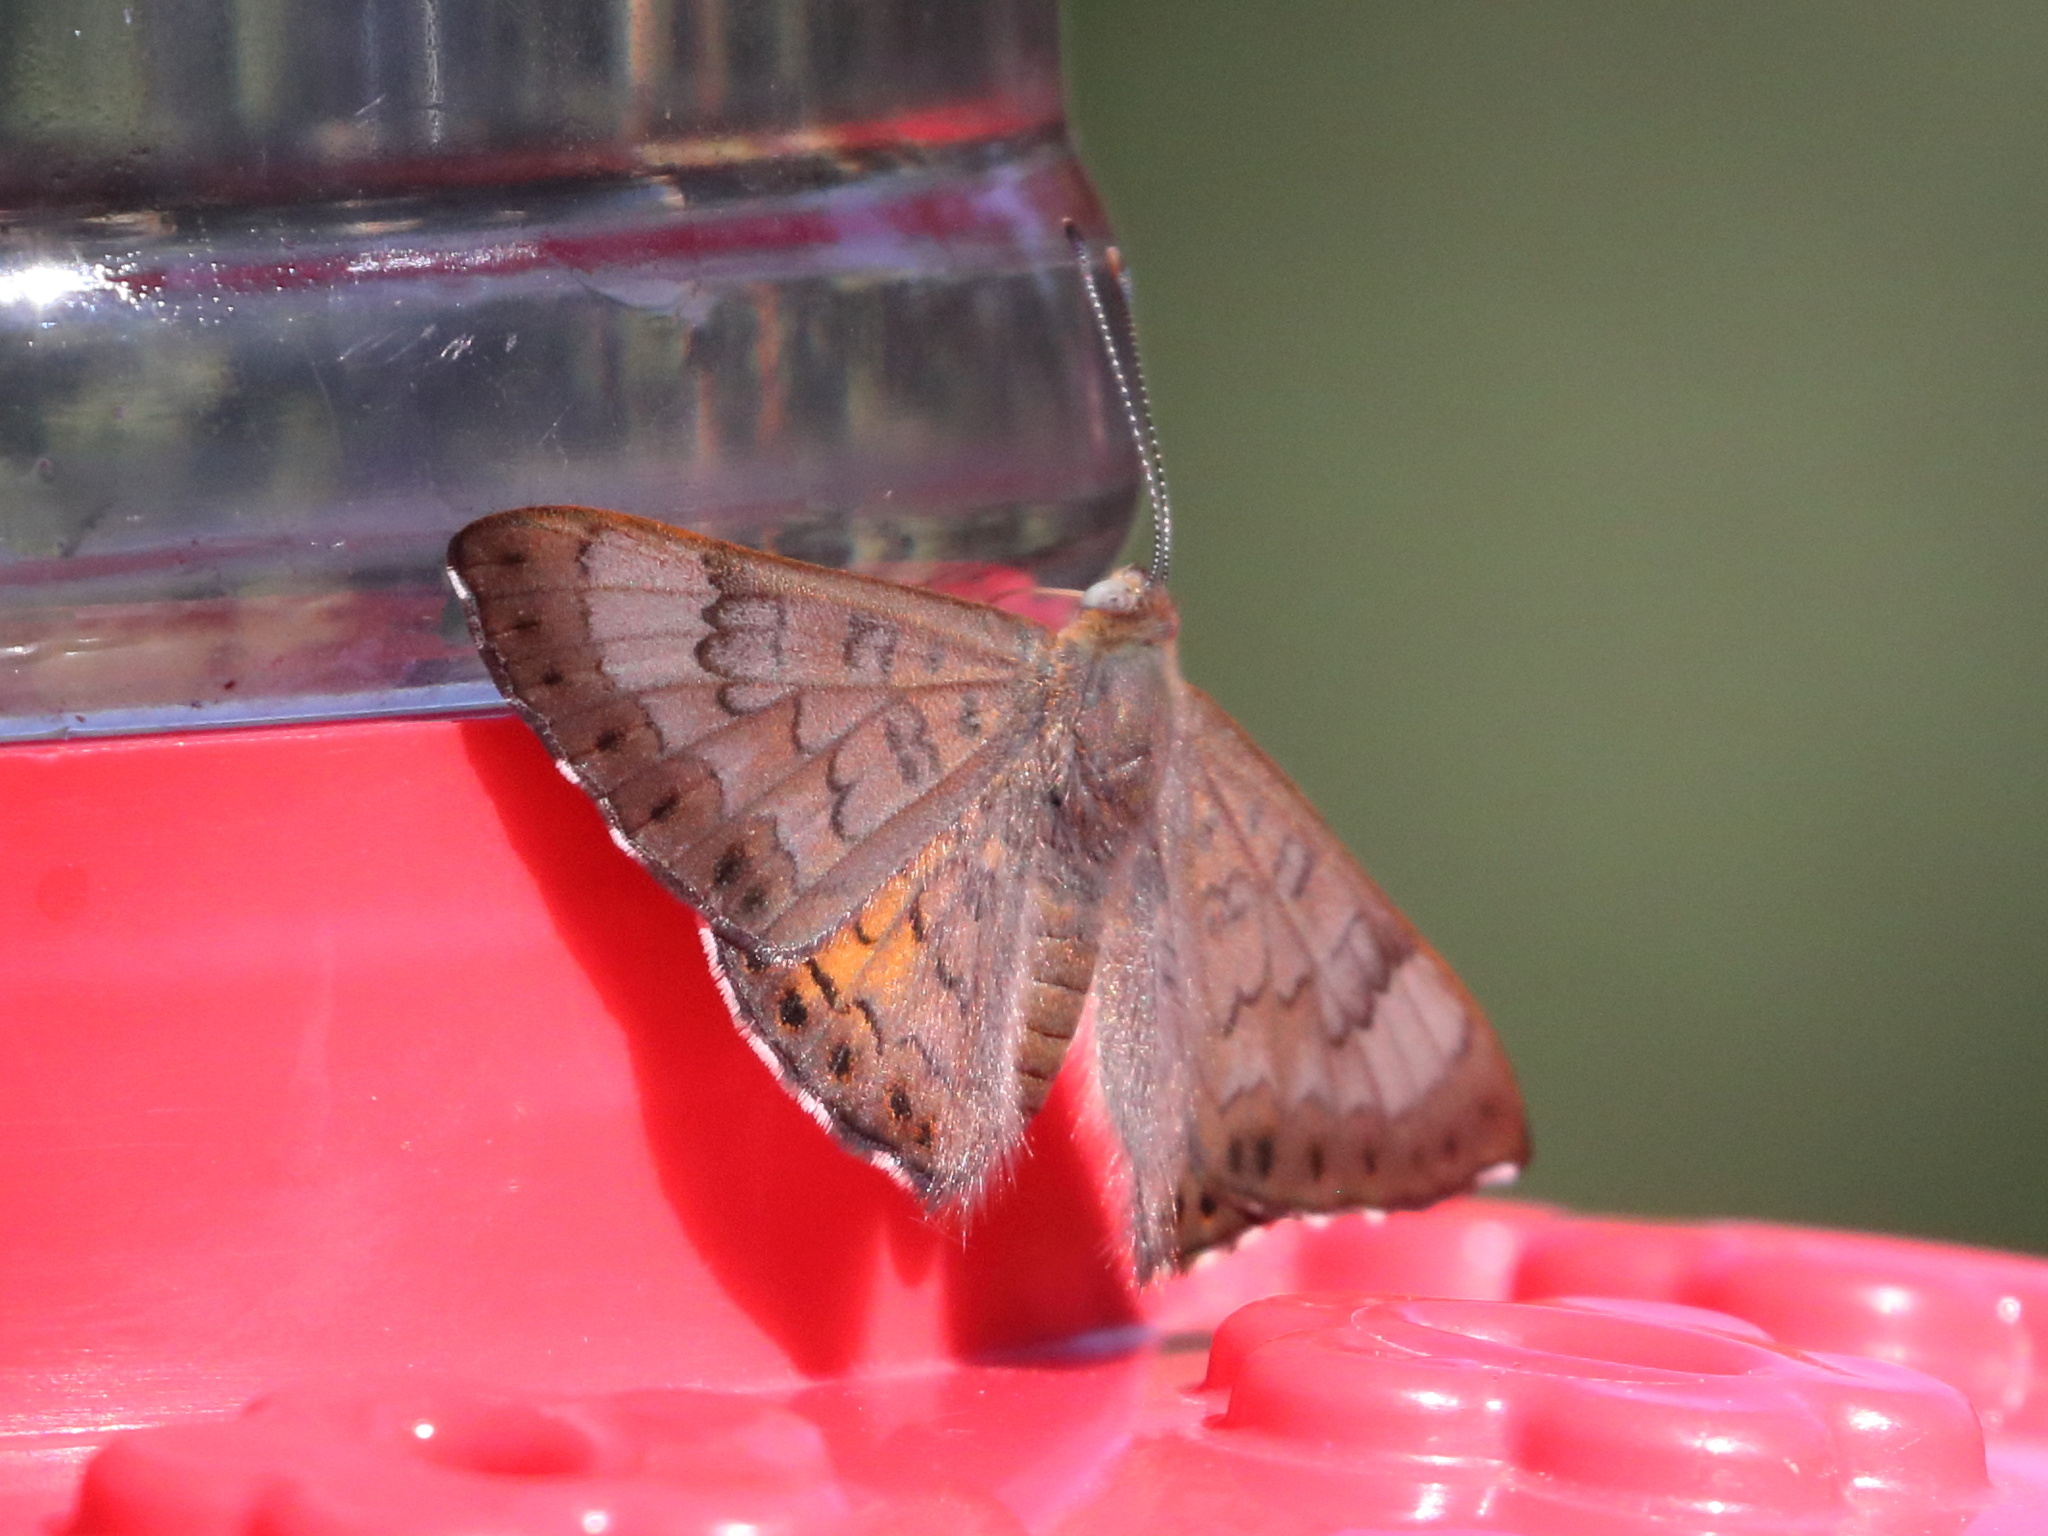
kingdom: Animalia
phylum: Arthropoda
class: Insecta
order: Lepidoptera
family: Riodinidae
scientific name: Riodinidae
